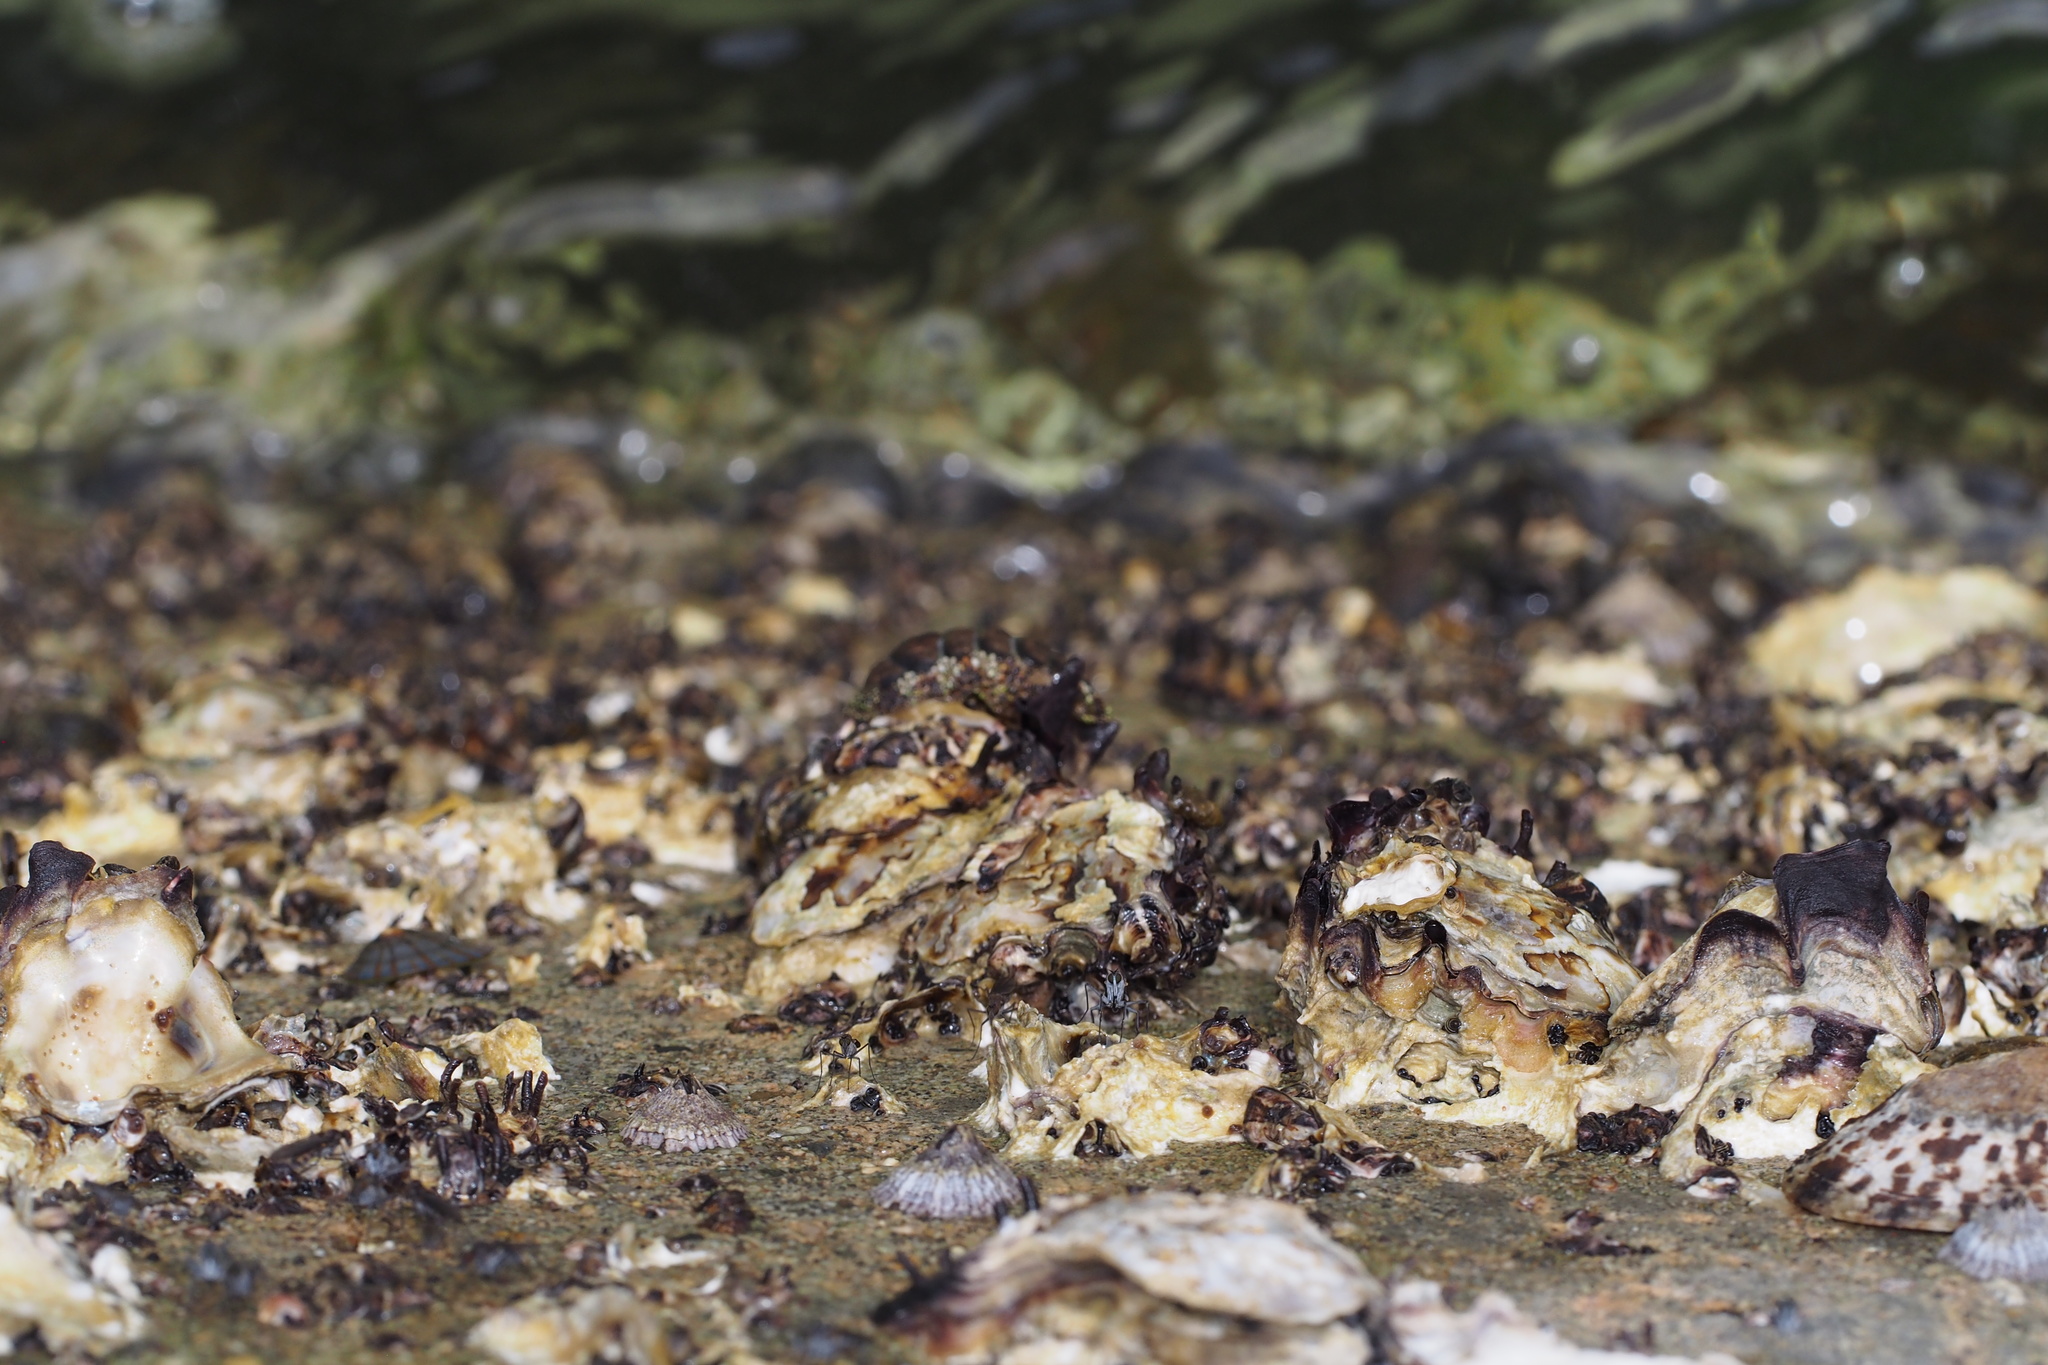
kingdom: Animalia
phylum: Mollusca
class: Bivalvia
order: Ostreida
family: Ostreidae
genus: Saccostrea
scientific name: Saccostrea kegaki
